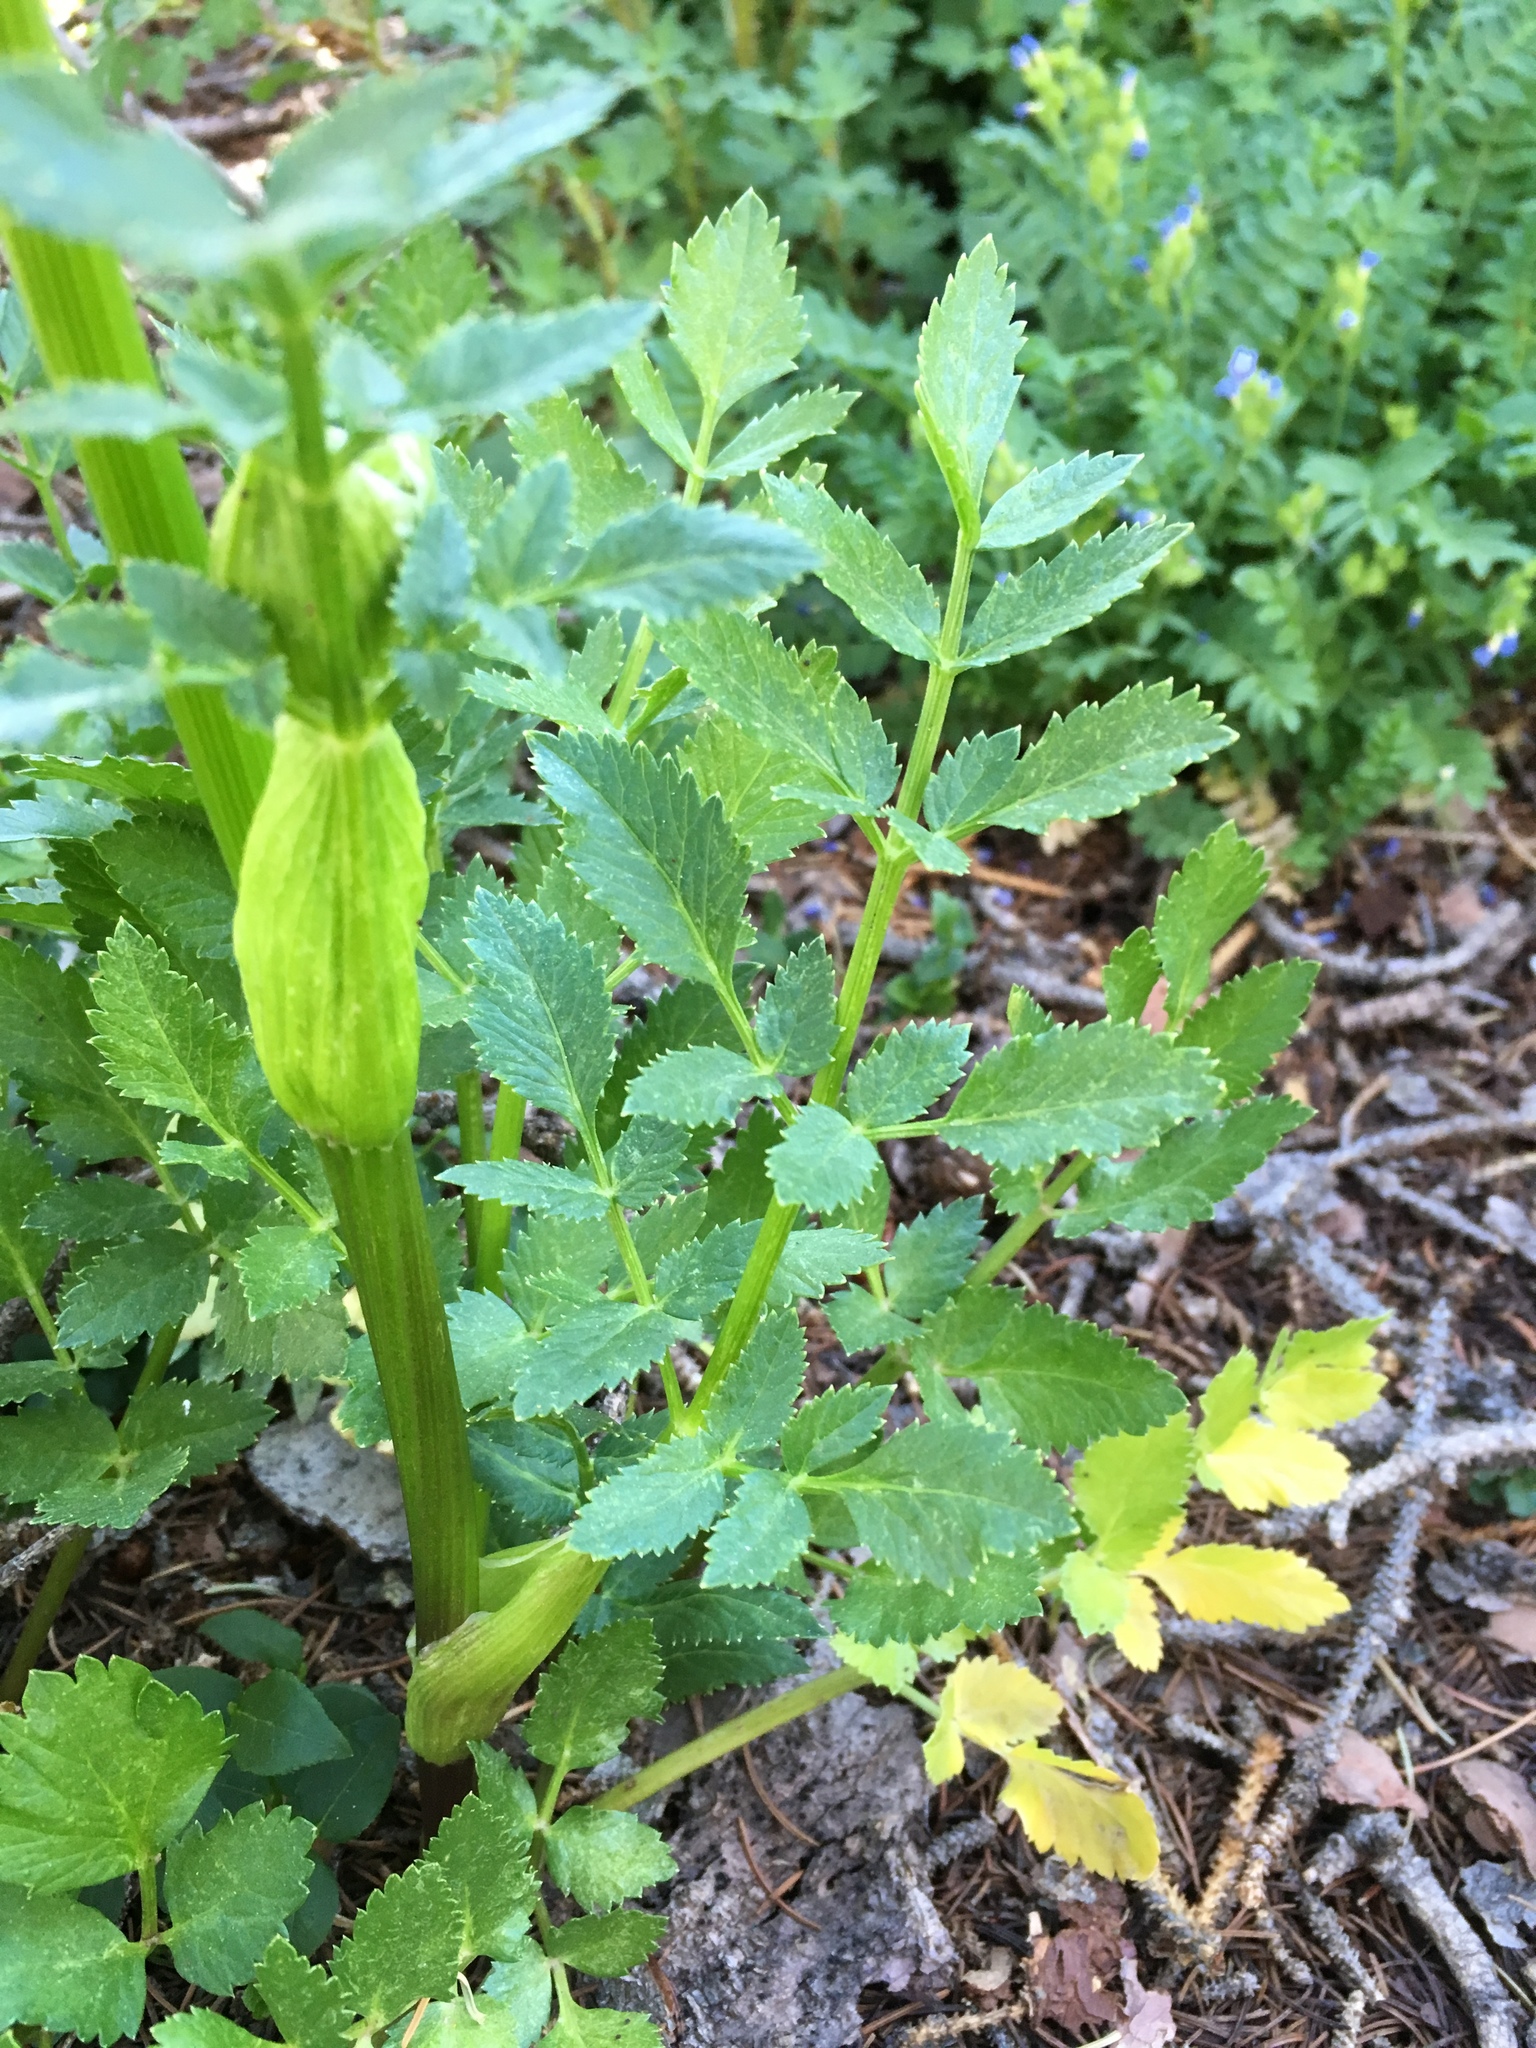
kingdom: Plantae
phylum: Tracheophyta
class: Magnoliopsida
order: Apiales
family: Apiaceae
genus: Angelica
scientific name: Angelica grayi
